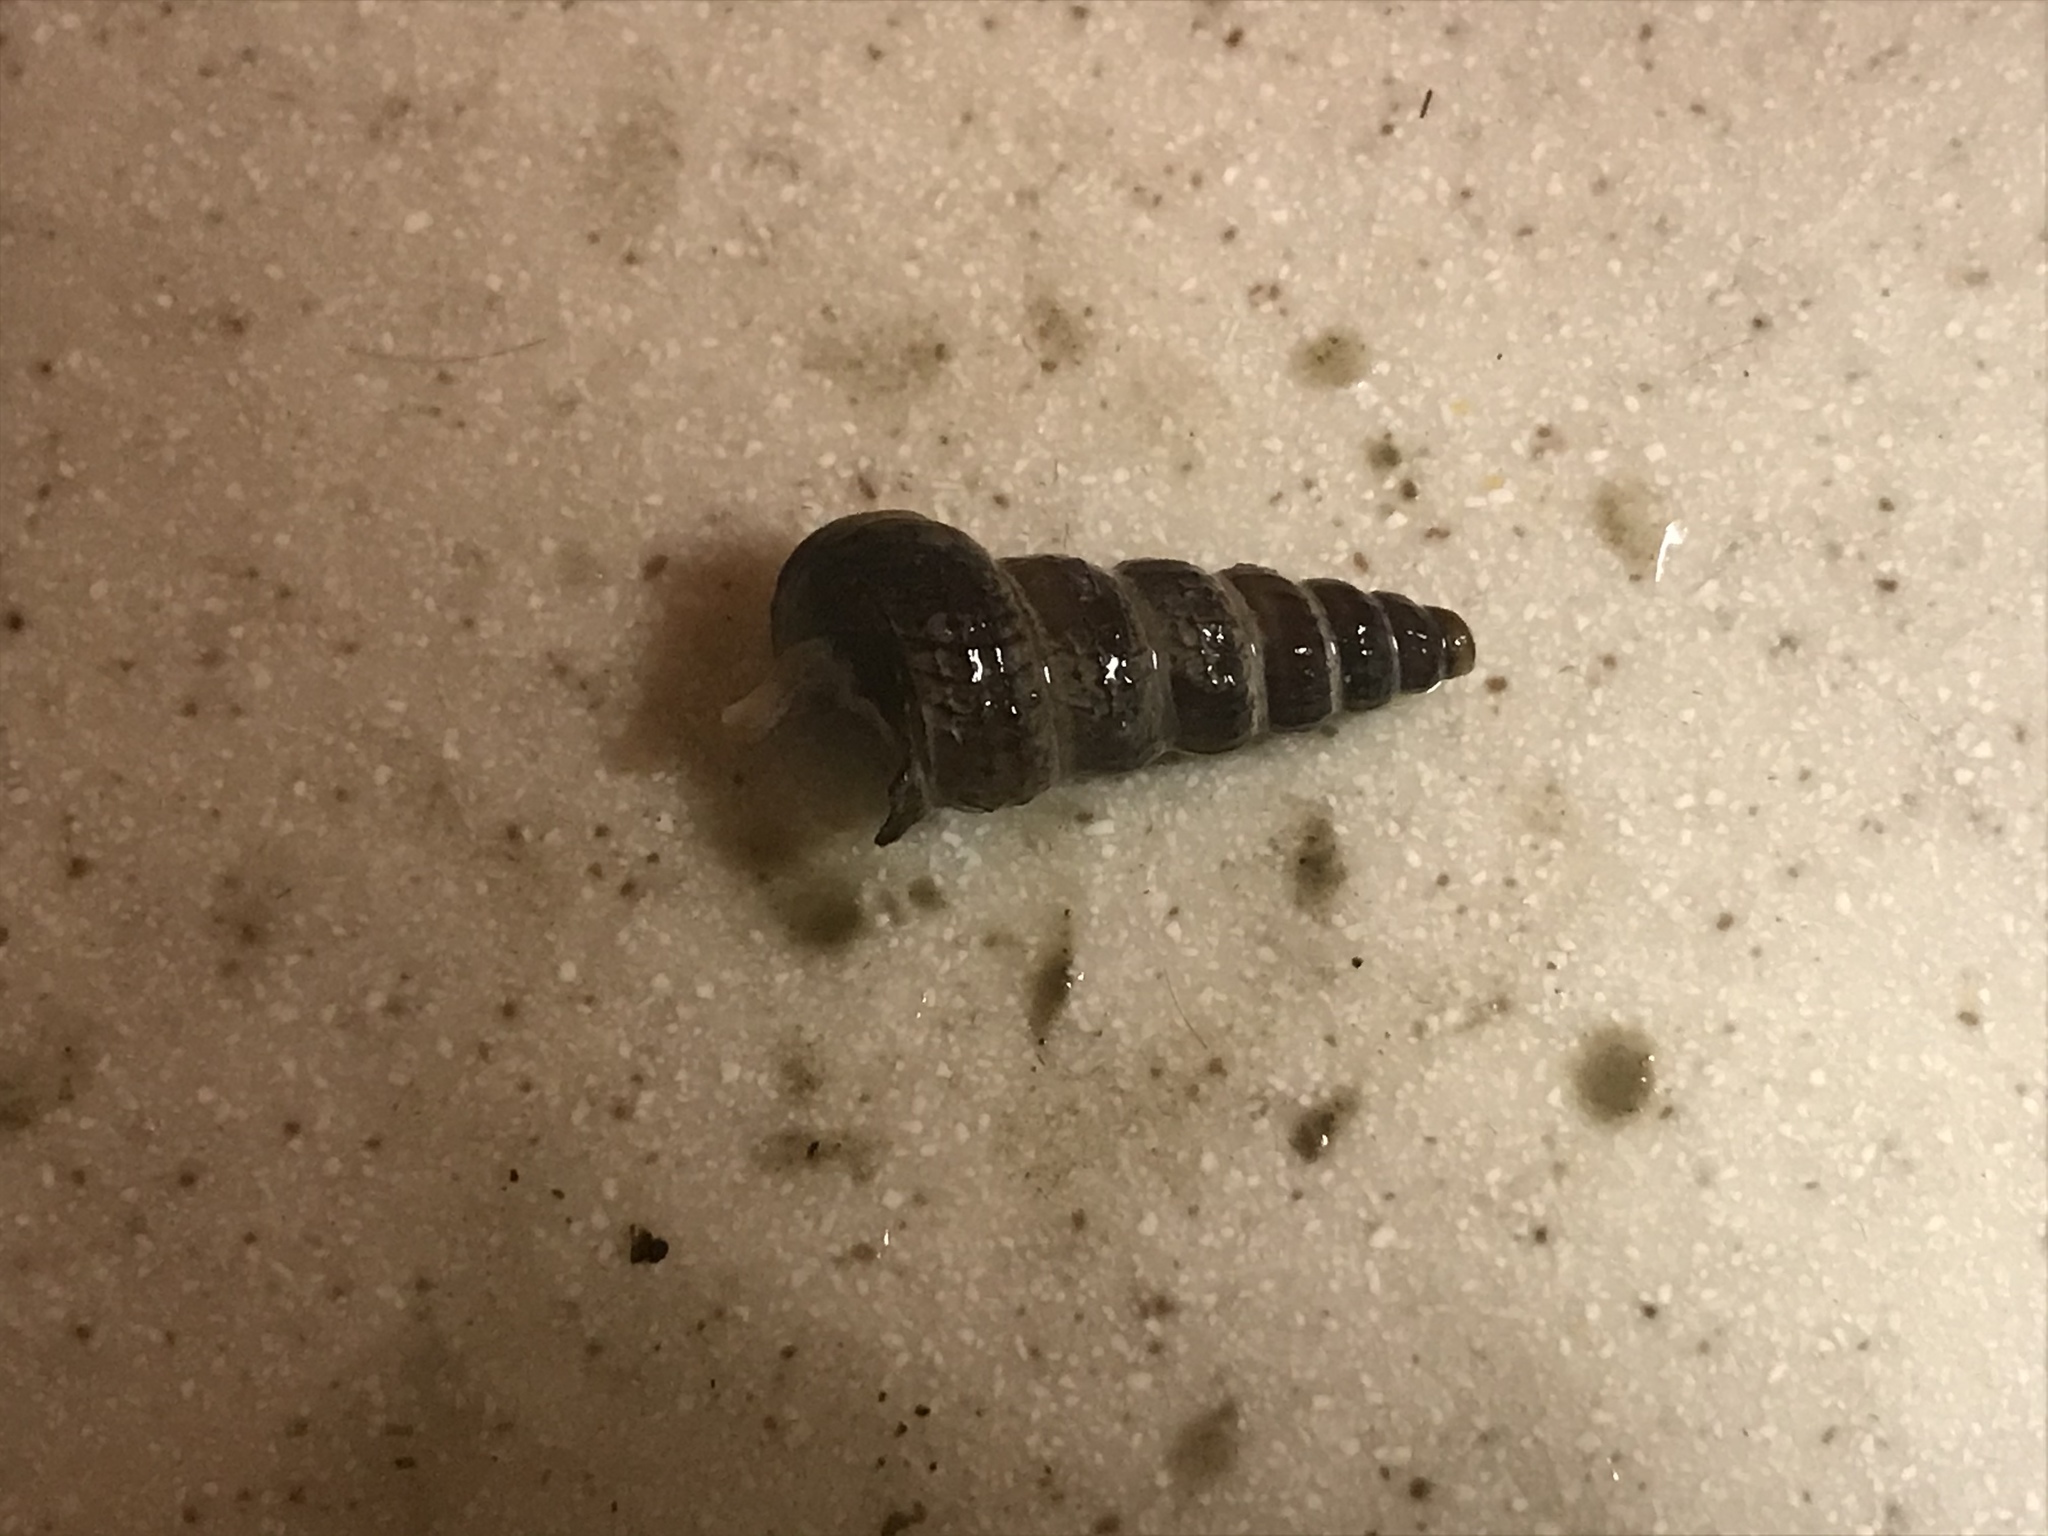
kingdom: Animalia
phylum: Mollusca
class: Gastropoda
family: Potamididae
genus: Cerithideopsis
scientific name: Cerithideopsis californica
